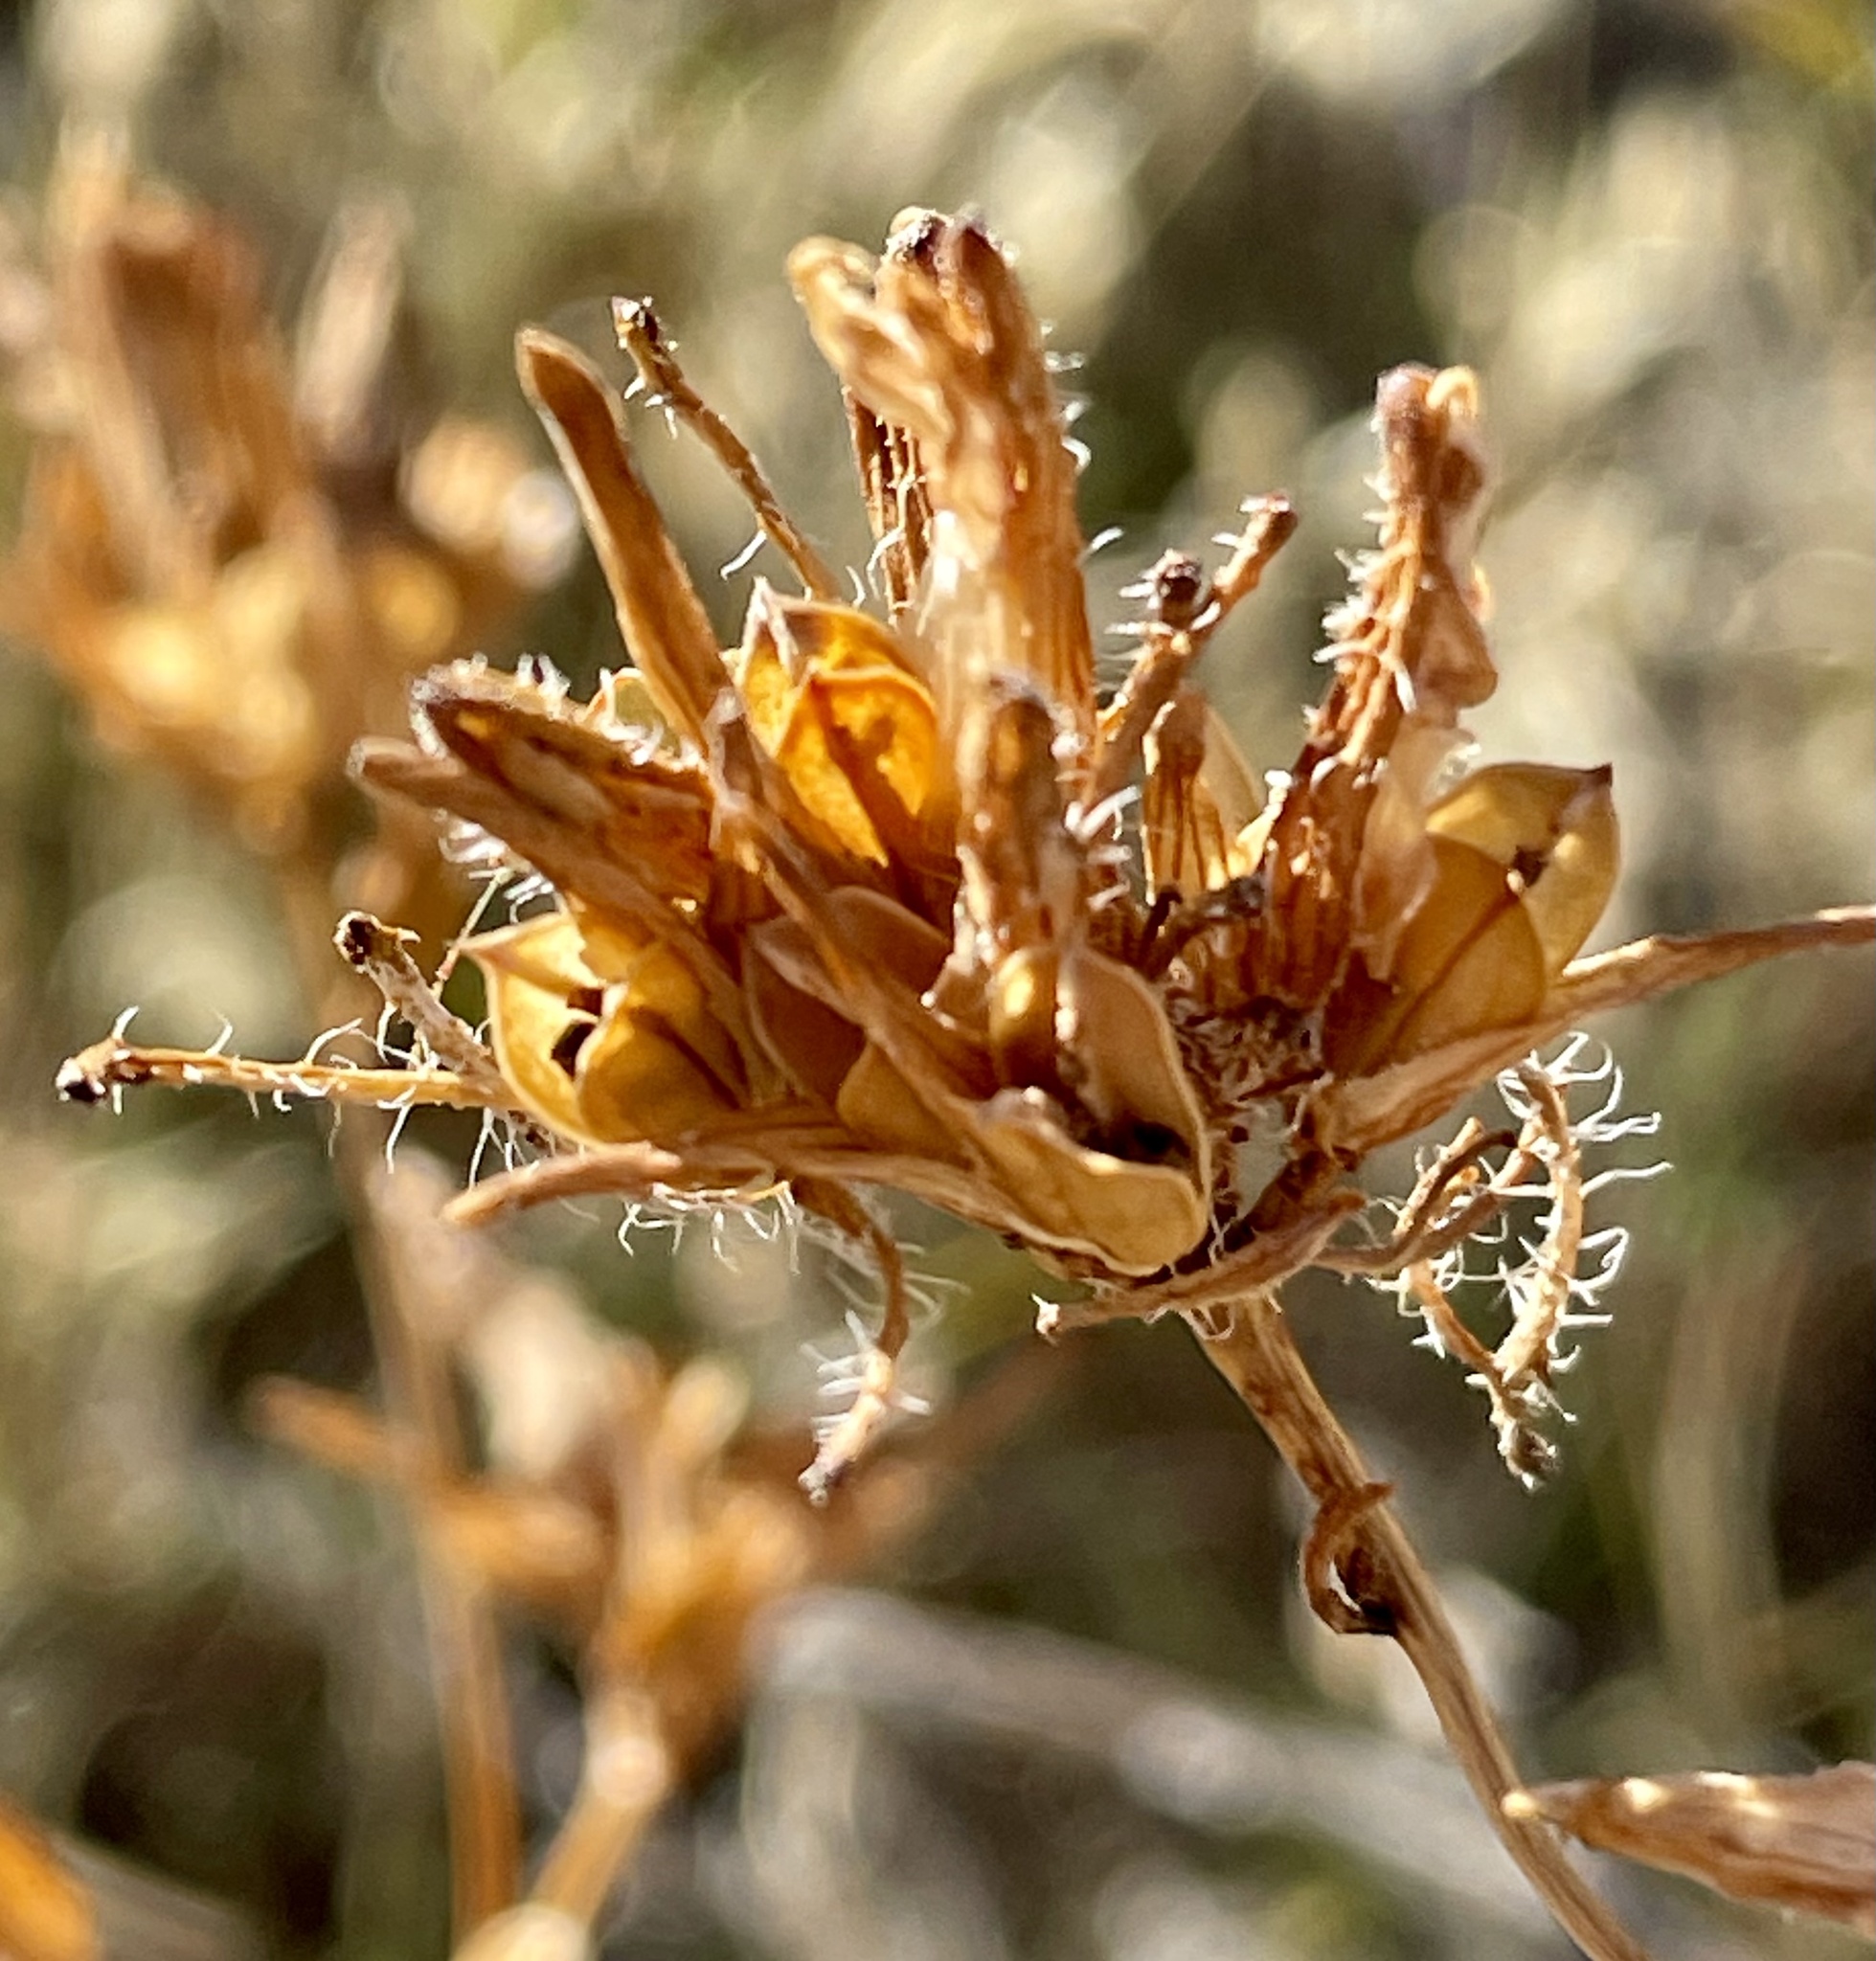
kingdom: Plantae
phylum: Tracheophyta
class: Magnoliopsida
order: Lamiales
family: Orobanchaceae
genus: Cordylanthus
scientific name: Cordylanthus rigidus
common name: Stiff-branch bird's-beak
